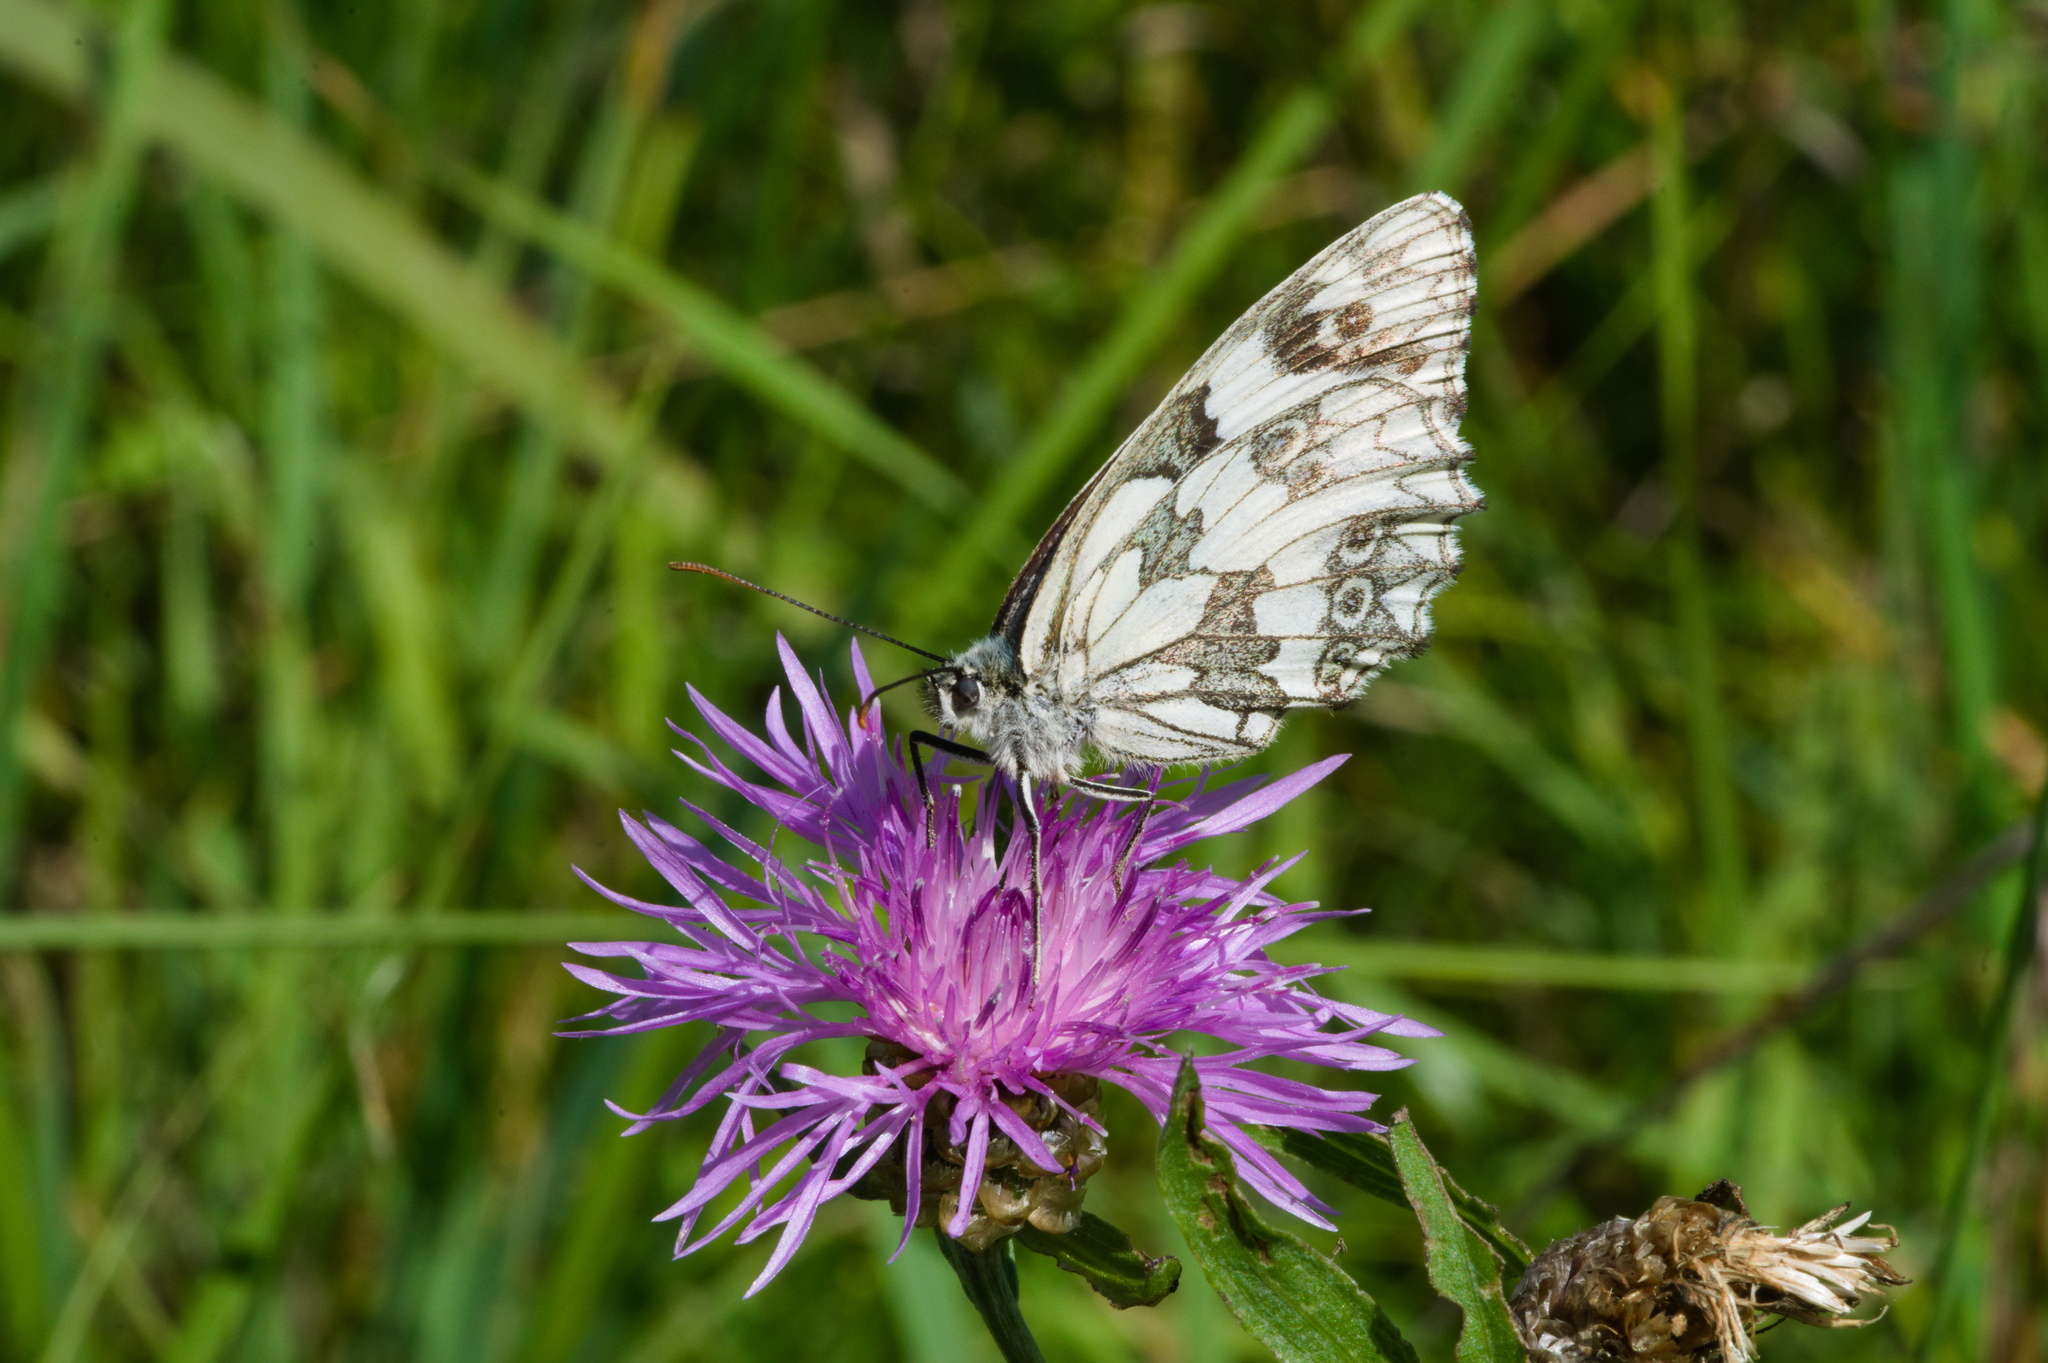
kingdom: Animalia
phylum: Arthropoda
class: Insecta
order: Lepidoptera
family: Nymphalidae
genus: Melanargia
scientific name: Melanargia galathea
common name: Marbled white
